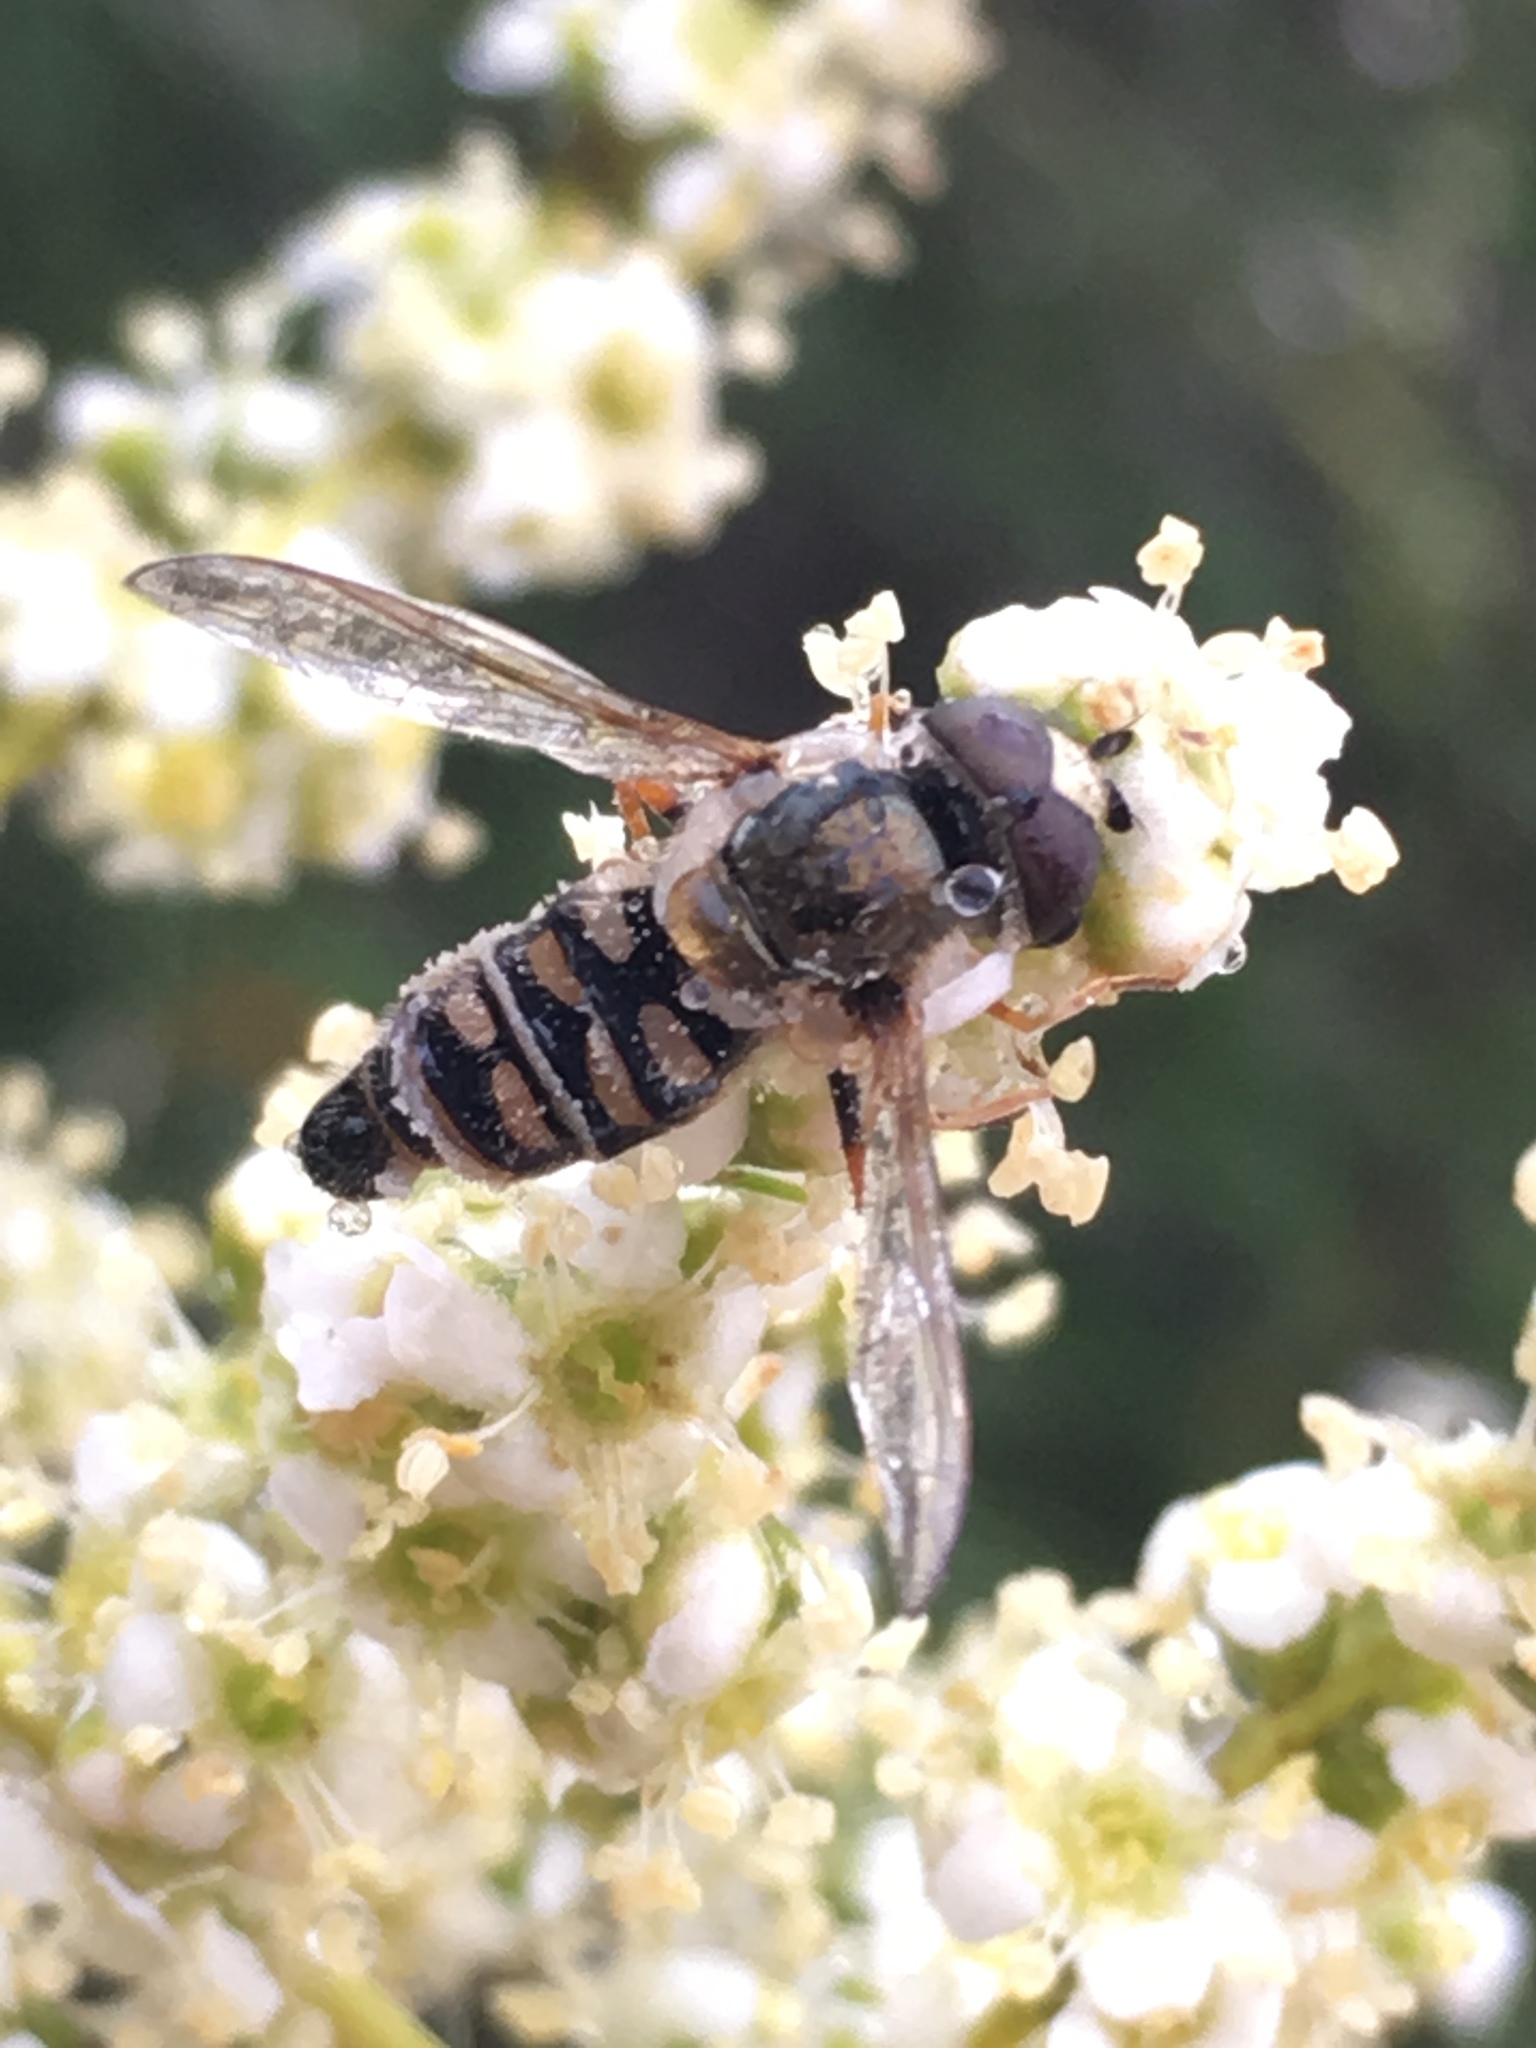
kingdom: Animalia
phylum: Arthropoda
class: Insecta
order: Diptera
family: Syrphidae
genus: Eupeodes
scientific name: Eupeodes volucris
